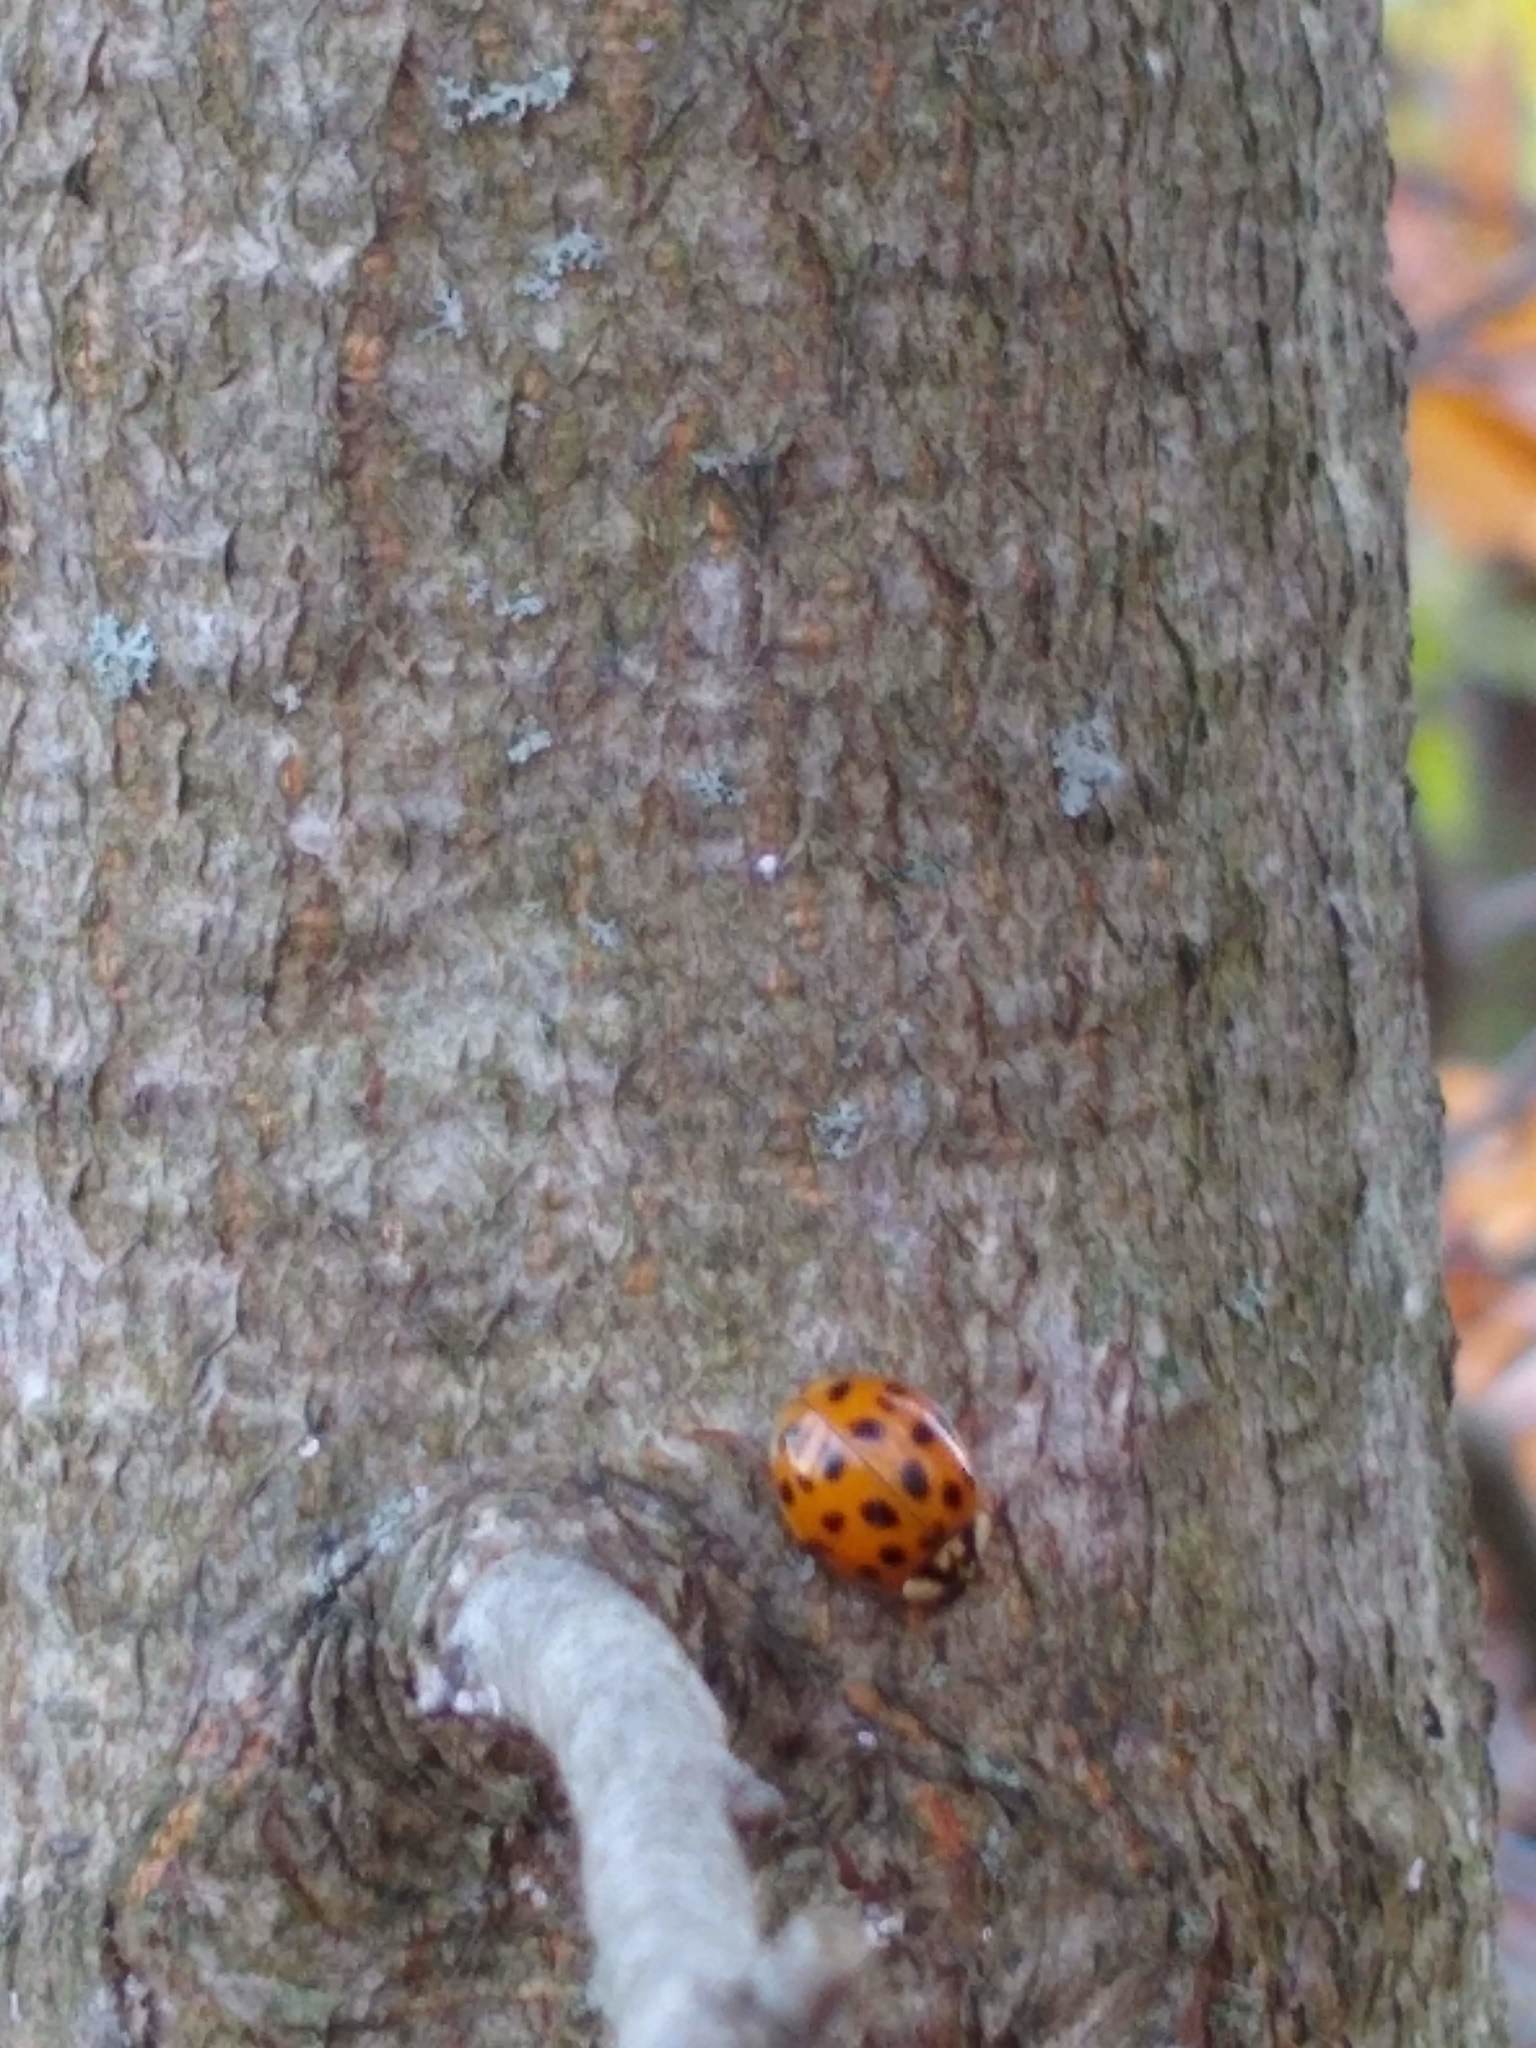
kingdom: Animalia
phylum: Arthropoda
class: Insecta
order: Coleoptera
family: Coccinellidae
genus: Harmonia
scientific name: Harmonia axyridis
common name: Harlequin ladybird
